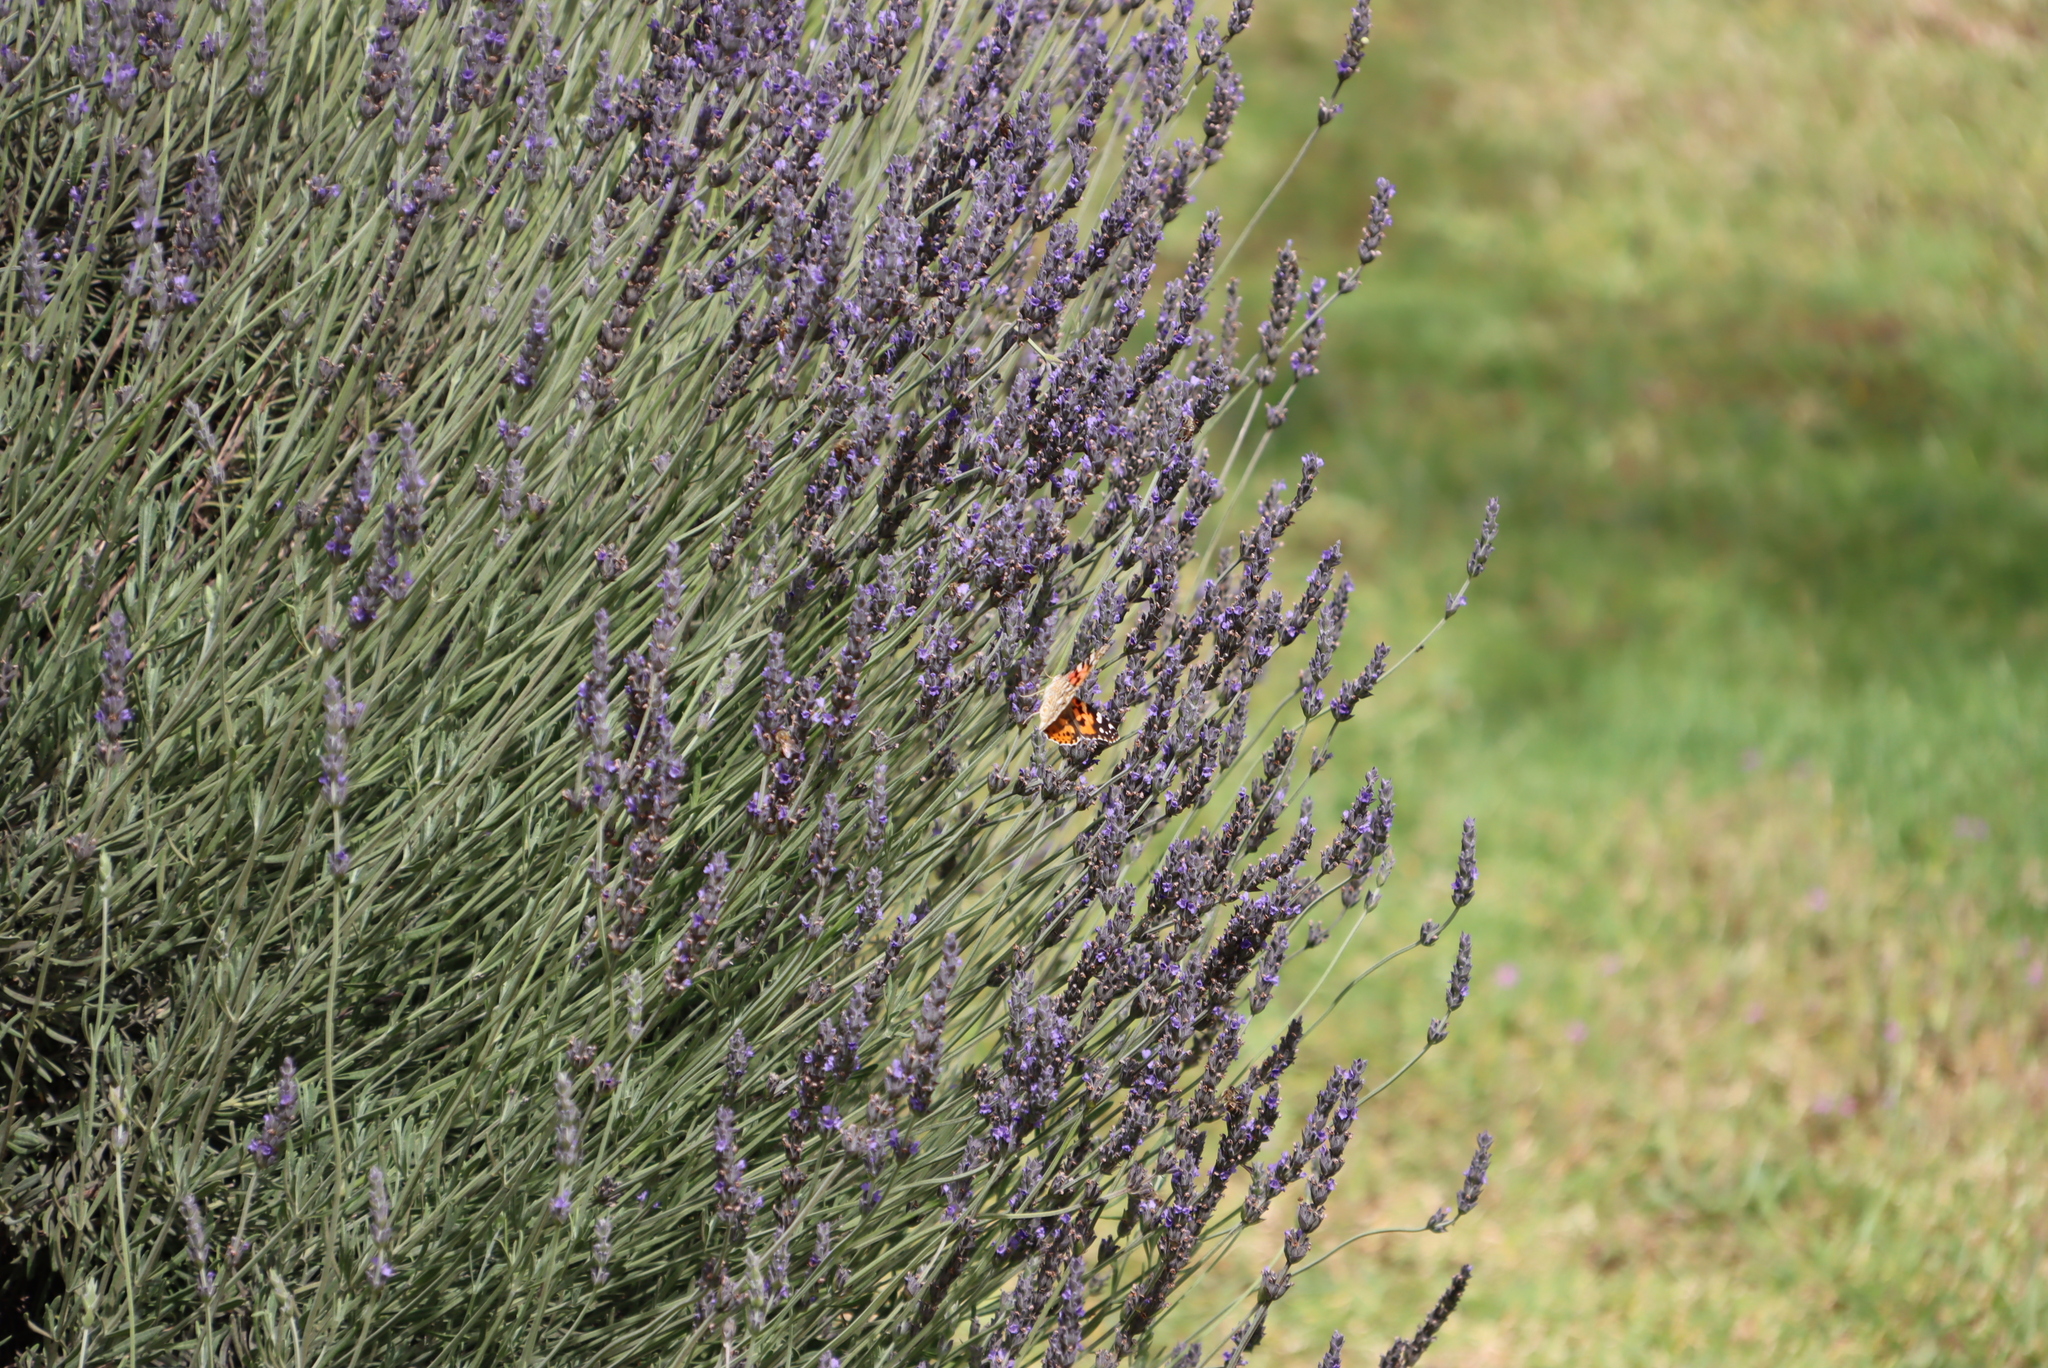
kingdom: Animalia
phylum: Arthropoda
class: Insecta
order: Lepidoptera
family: Nymphalidae
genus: Vanessa
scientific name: Vanessa cardui
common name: Painted lady
